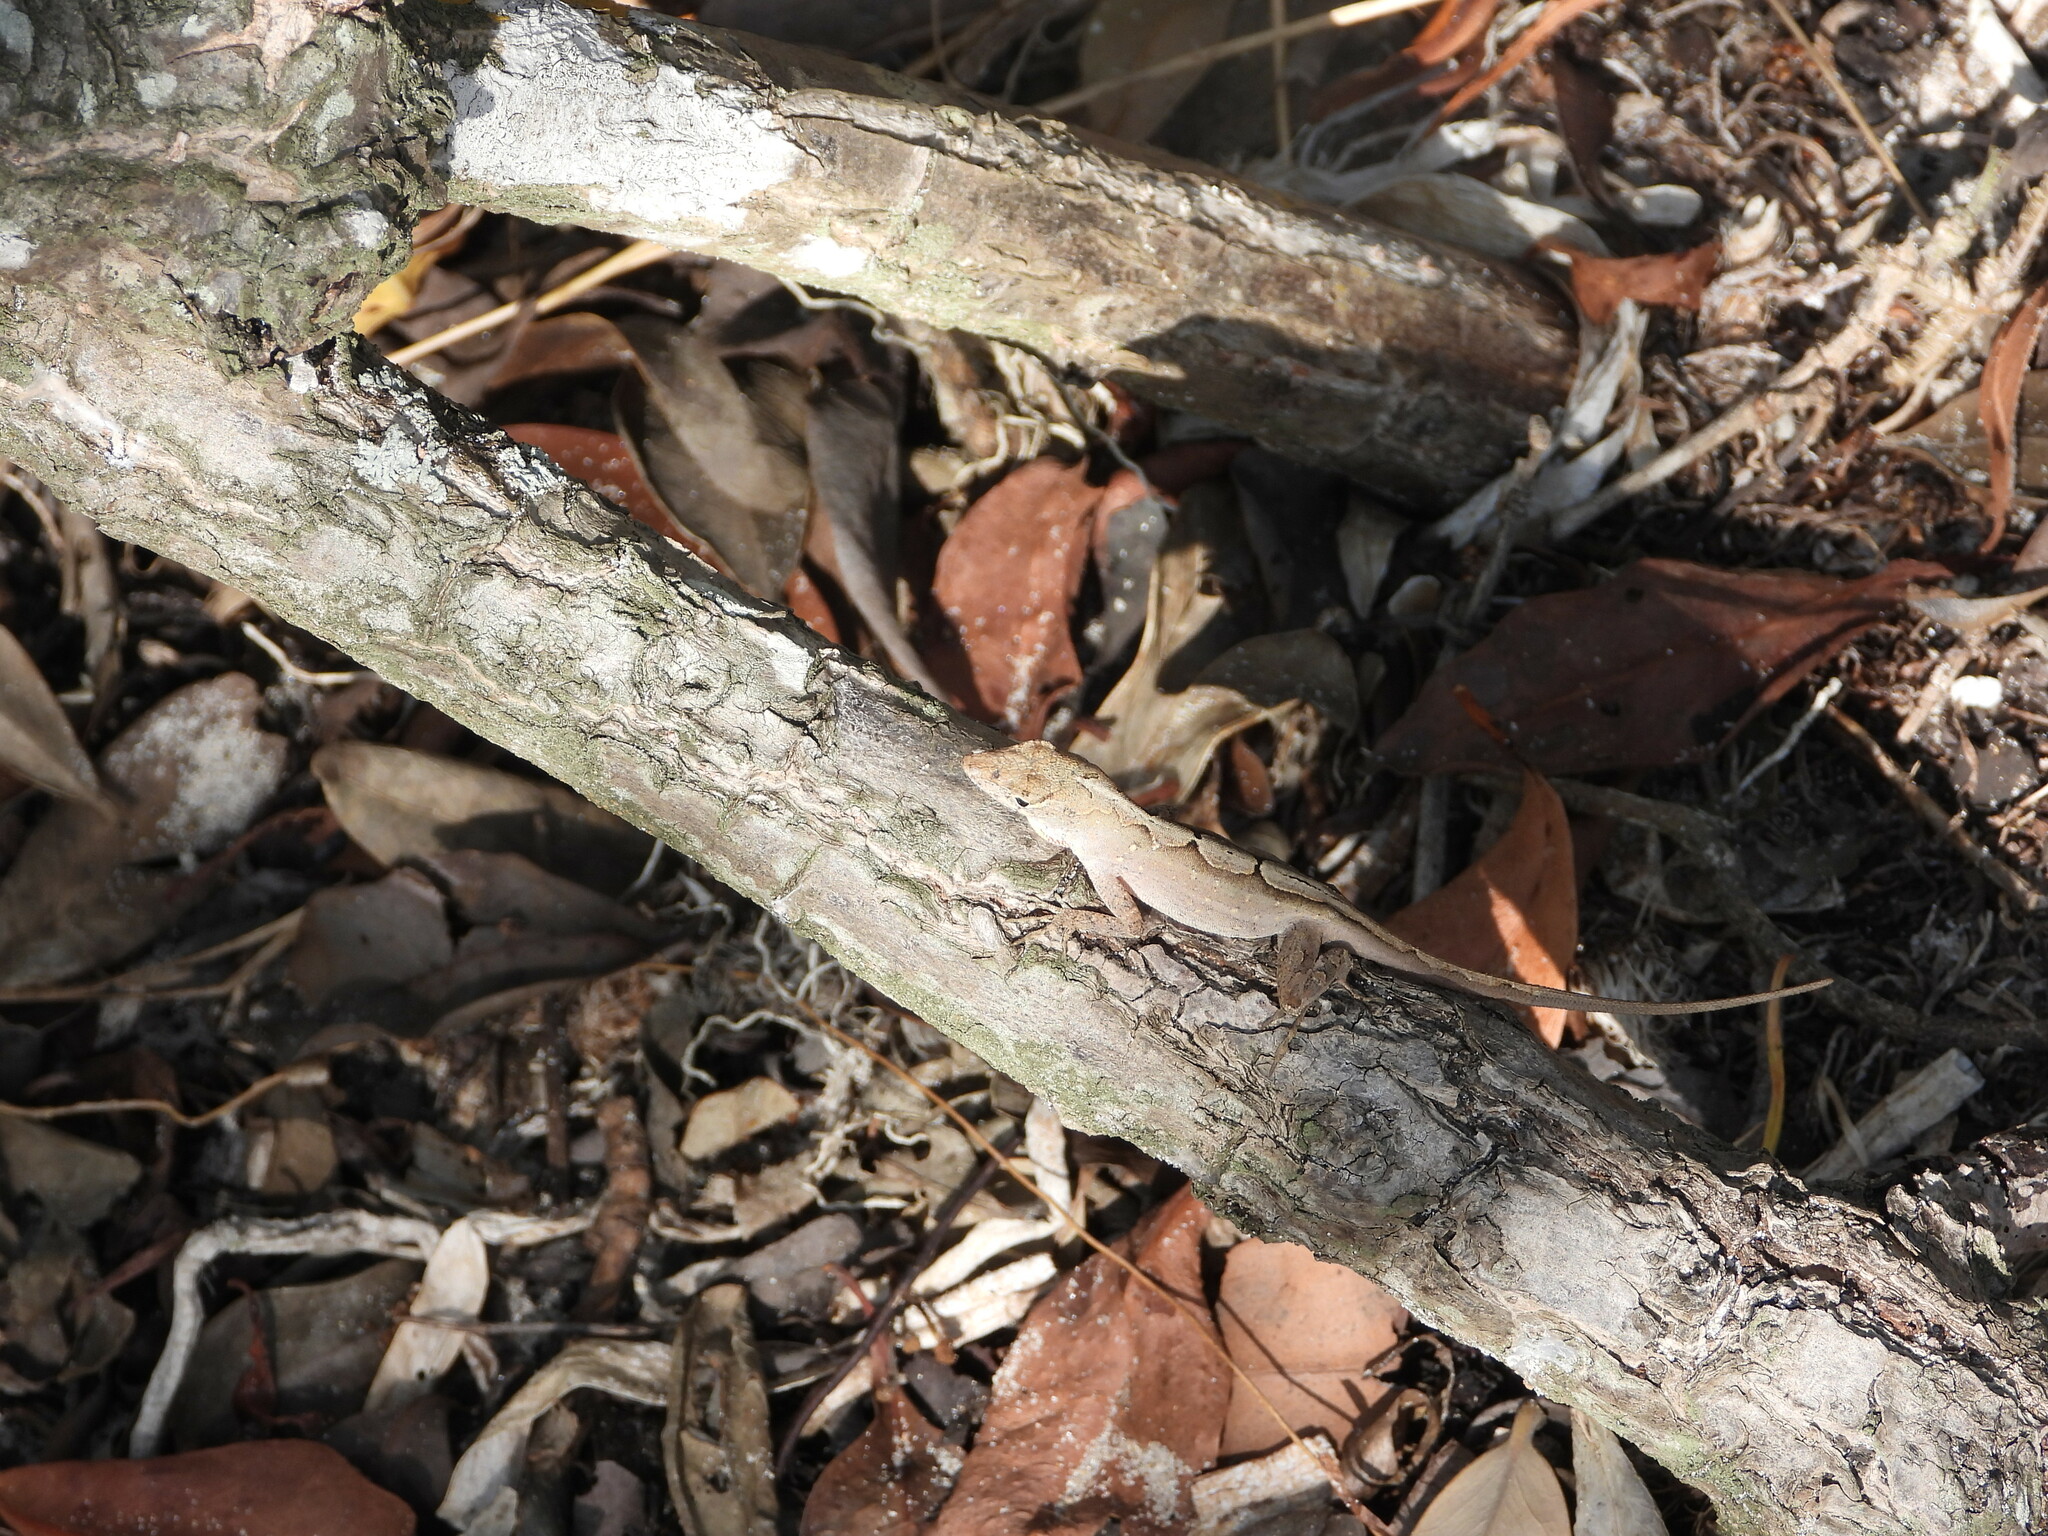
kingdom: Animalia
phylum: Chordata
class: Squamata
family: Dactyloidae
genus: Anolis
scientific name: Anolis sagrei
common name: Brown anole
